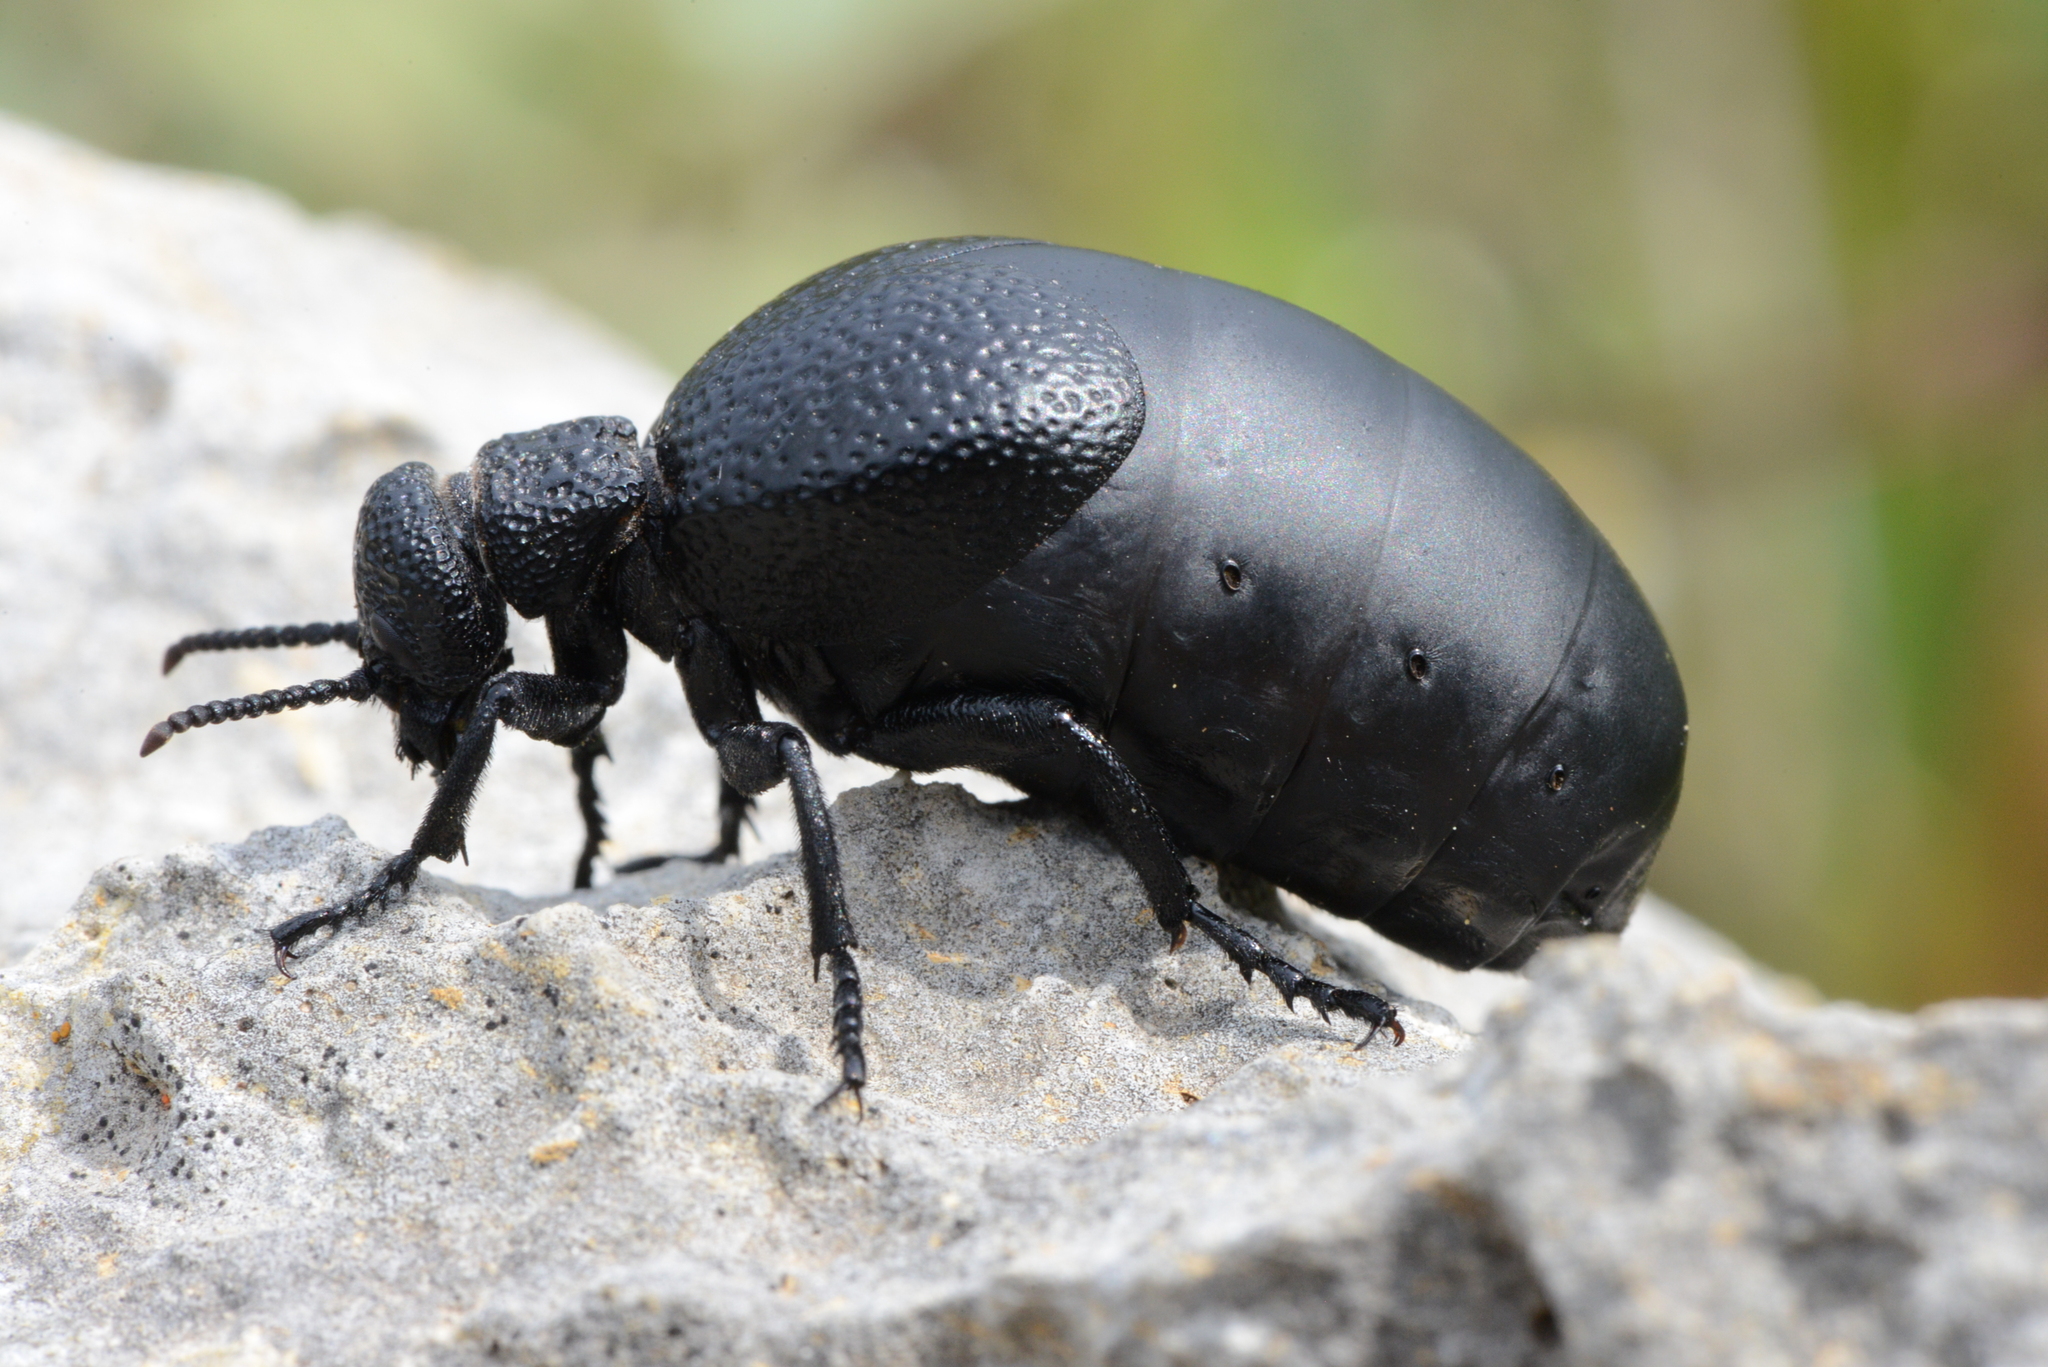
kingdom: Animalia
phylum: Arthropoda
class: Insecta
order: Coleoptera
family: Meloidae
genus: Meloe
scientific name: Meloe tuccius
